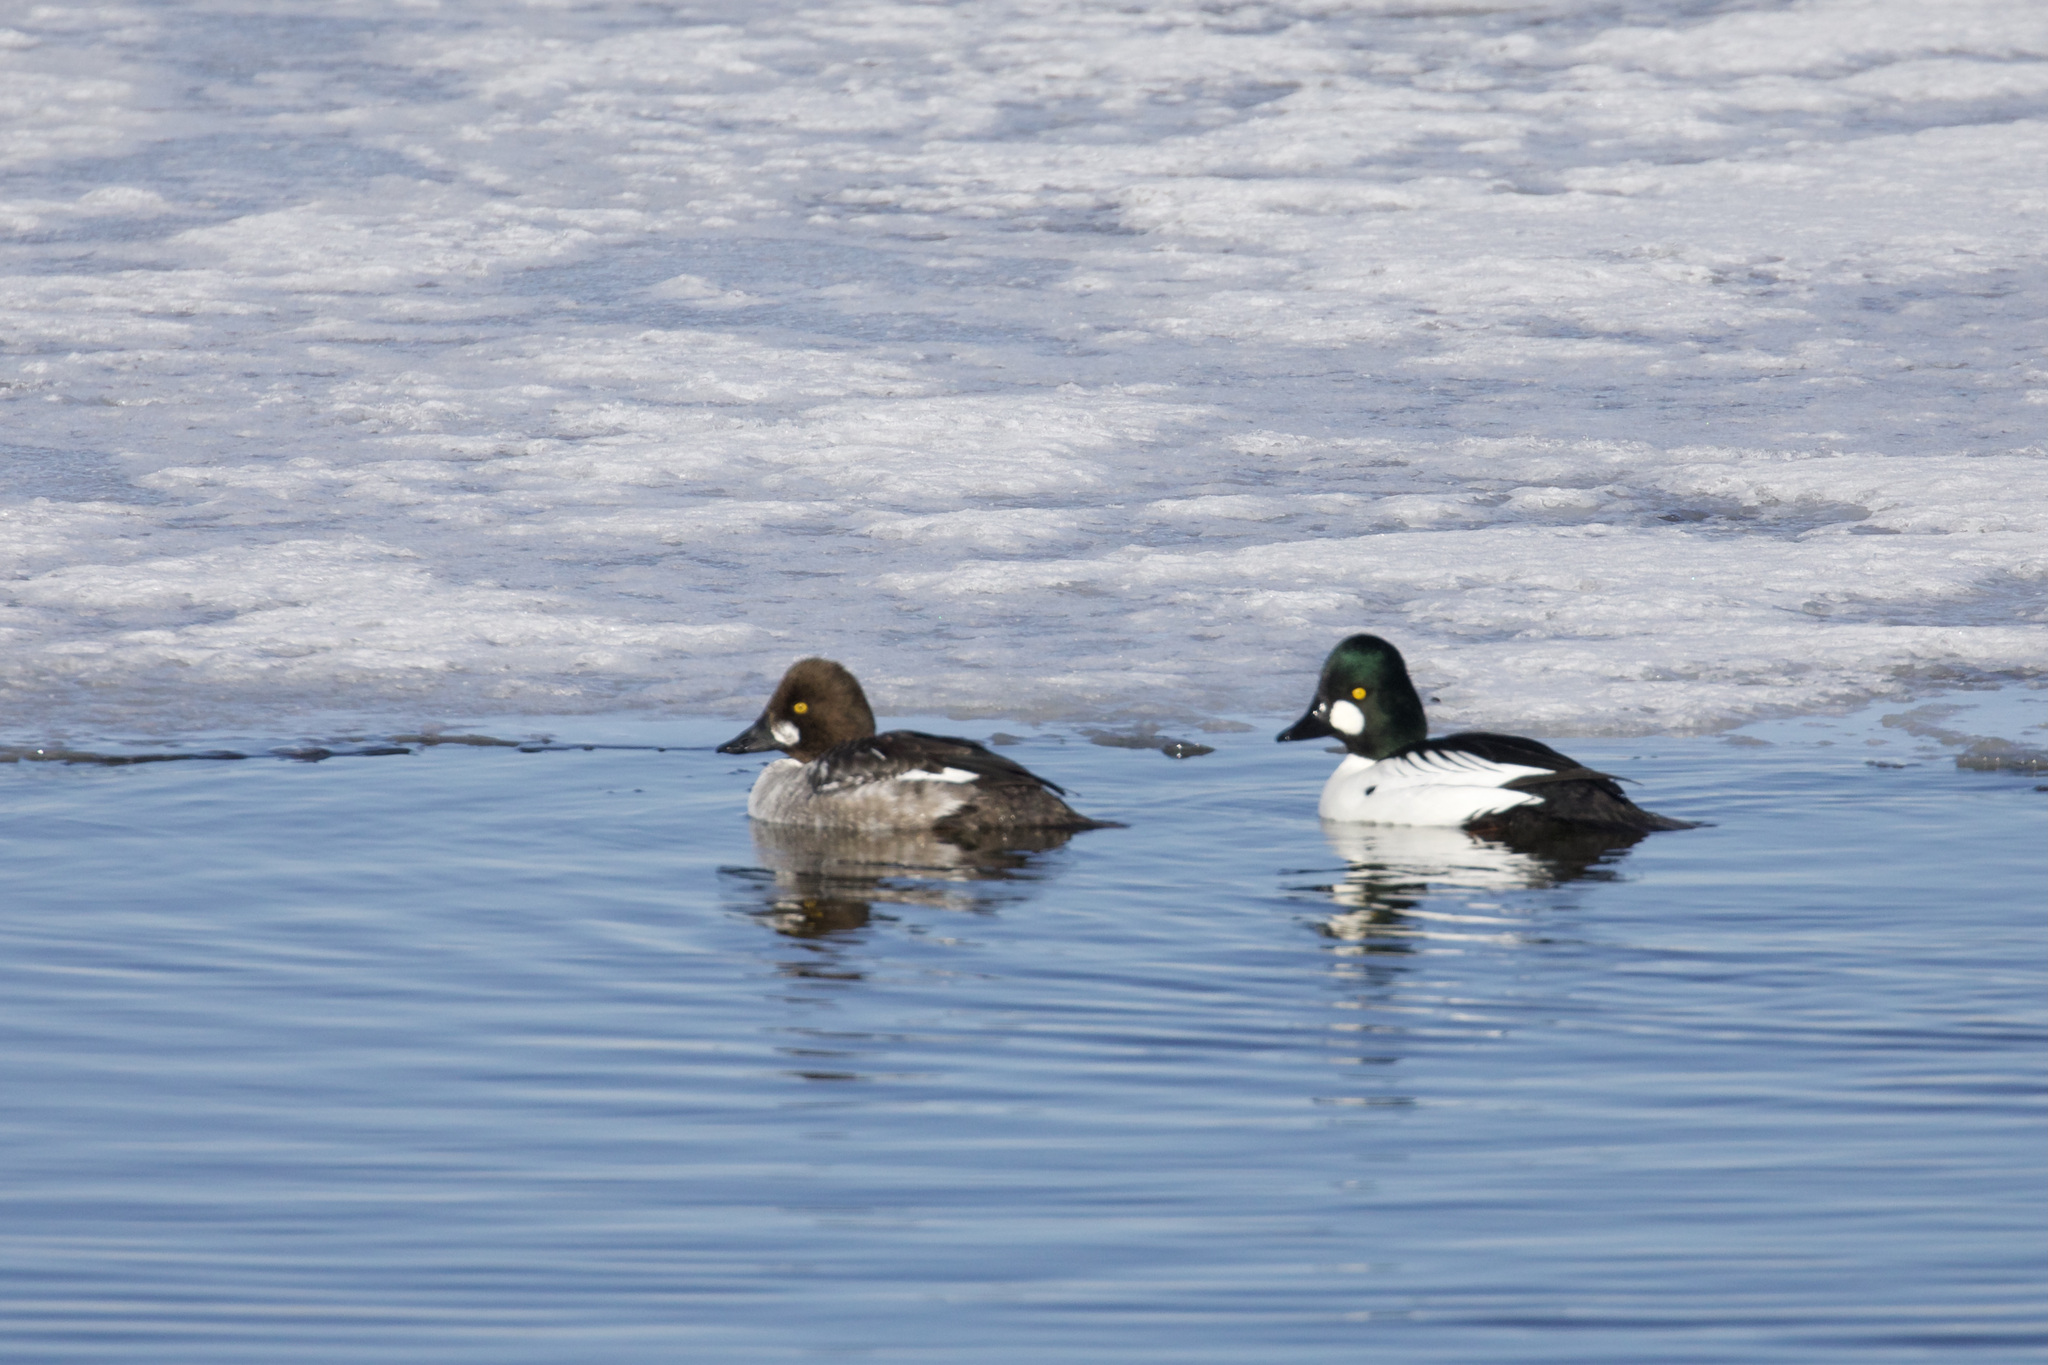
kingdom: Animalia
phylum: Chordata
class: Aves
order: Anseriformes
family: Anatidae
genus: Bucephala
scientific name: Bucephala clangula
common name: Common goldeneye
